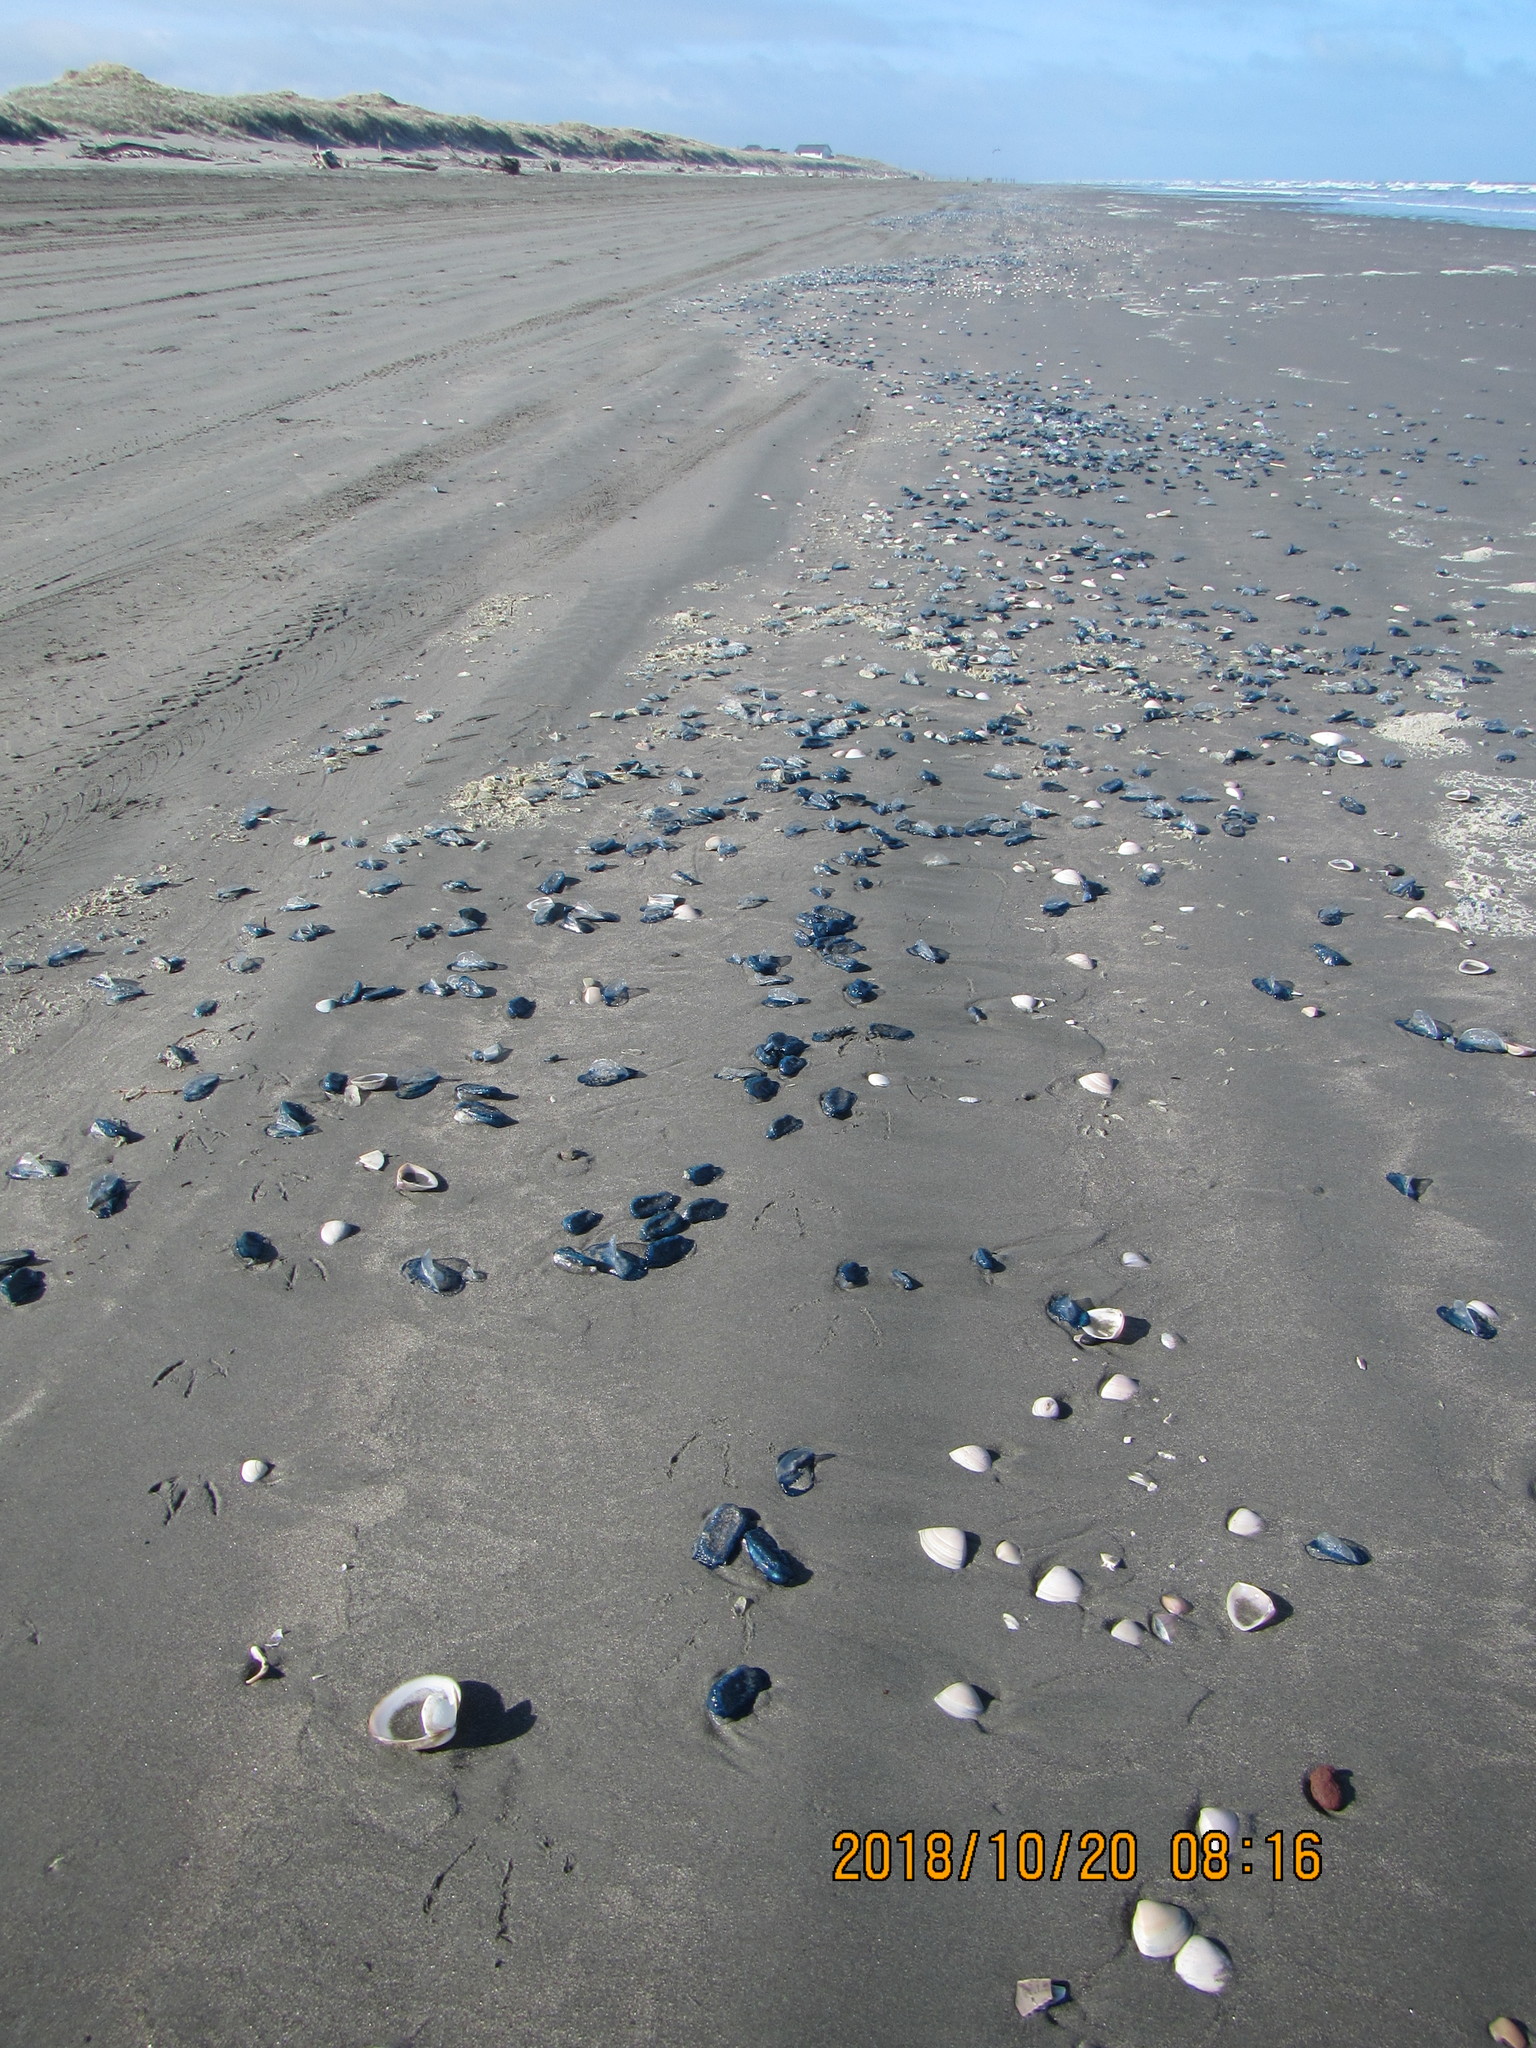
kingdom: Animalia
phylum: Cnidaria
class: Hydrozoa
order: Anthoathecata
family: Porpitidae
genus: Velella
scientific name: Velella velella
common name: By-the-wind-sailor
